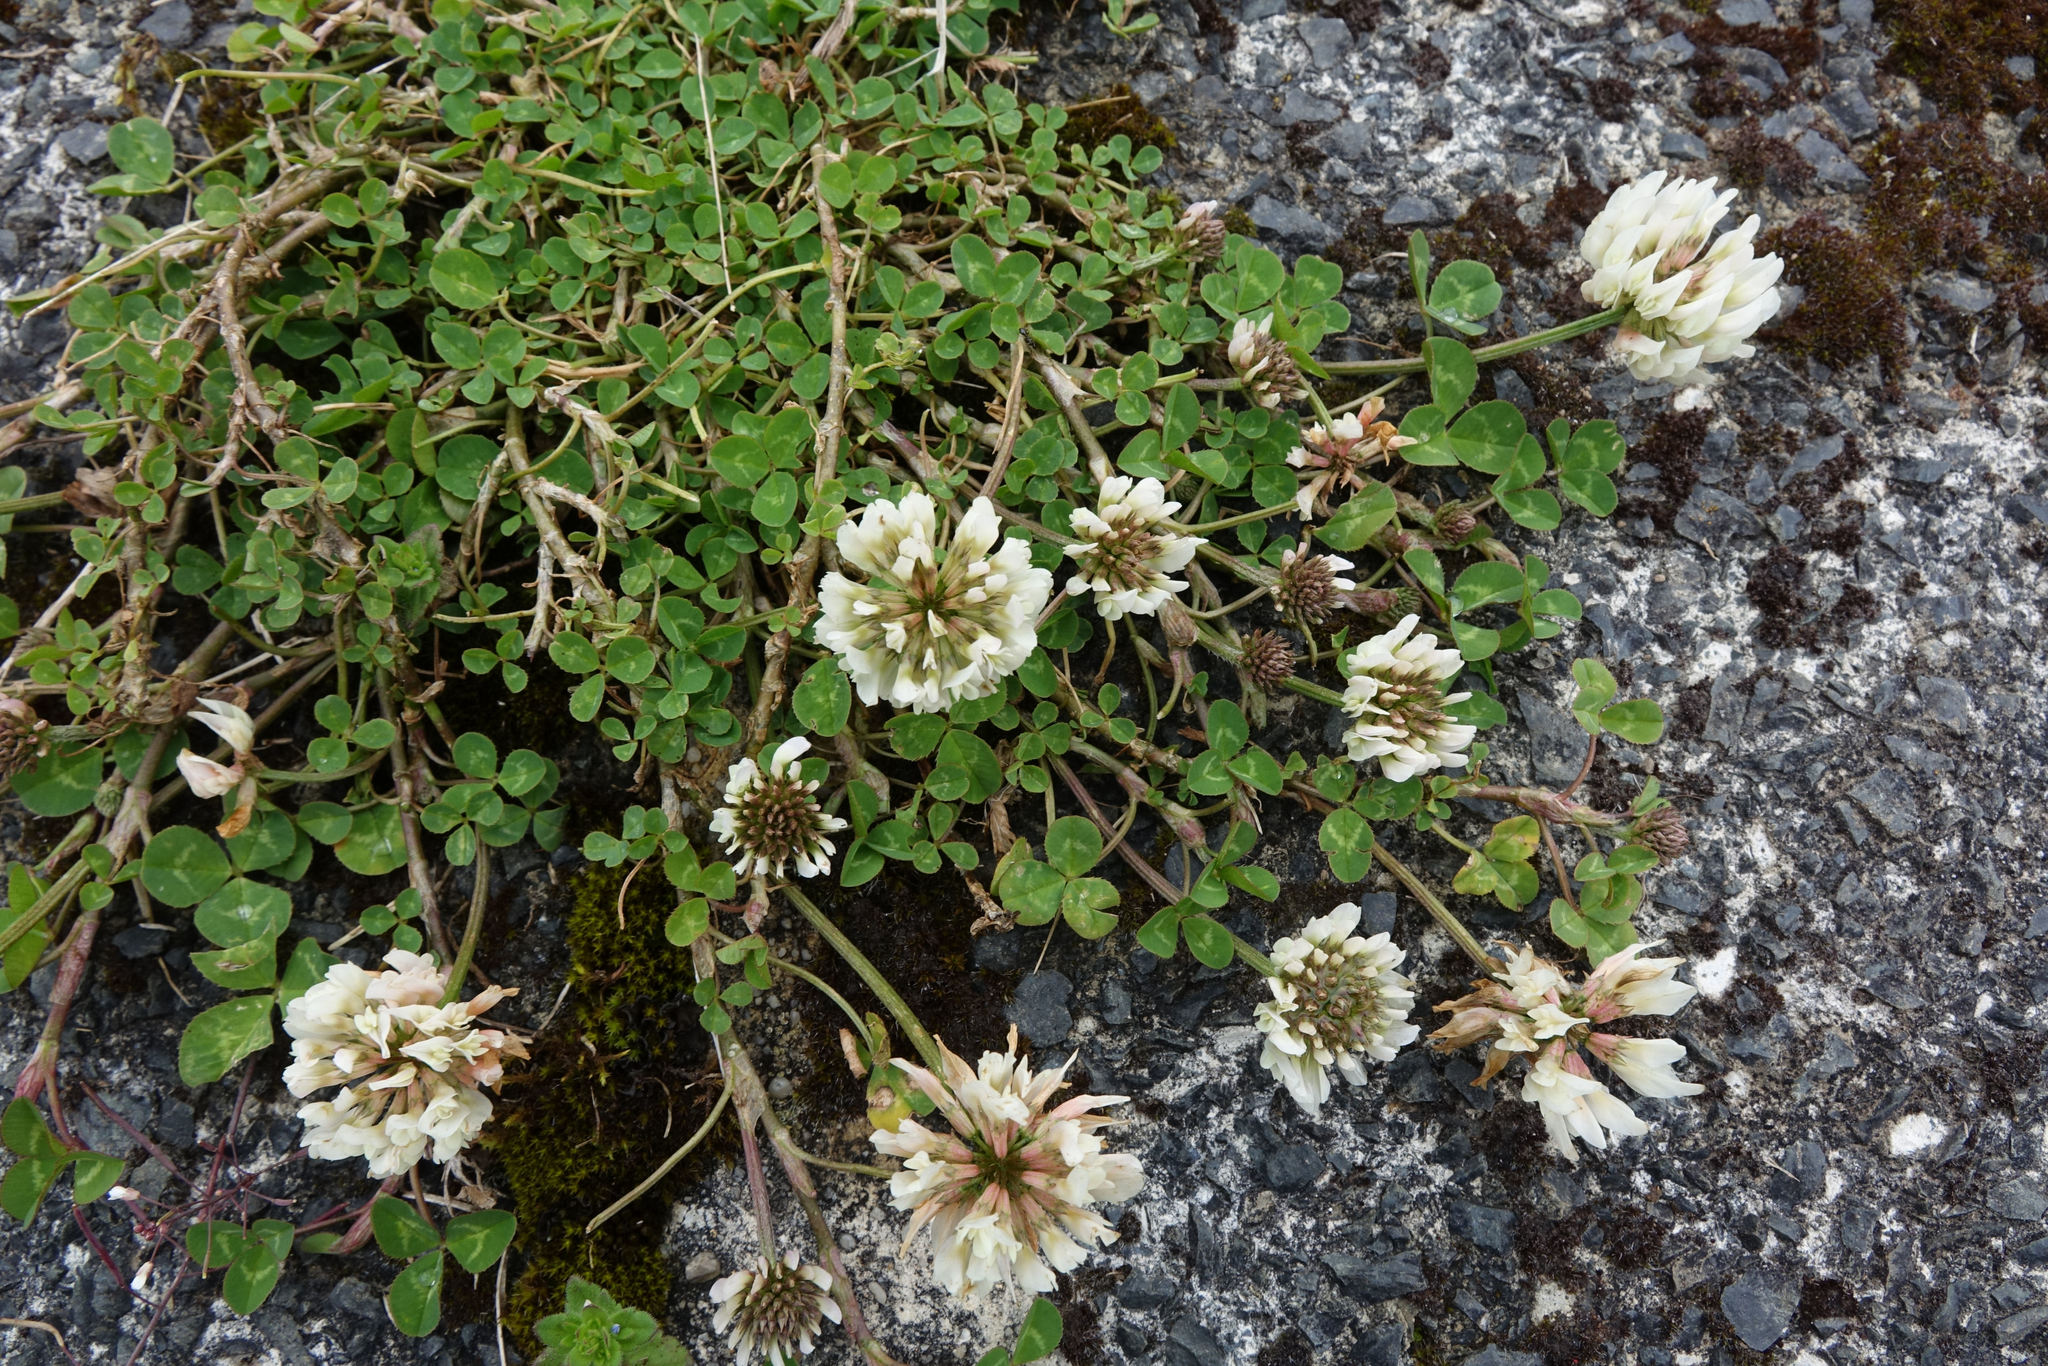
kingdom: Plantae
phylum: Tracheophyta
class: Magnoliopsida
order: Fabales
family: Fabaceae
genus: Trifolium
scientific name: Trifolium repens
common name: White clover
